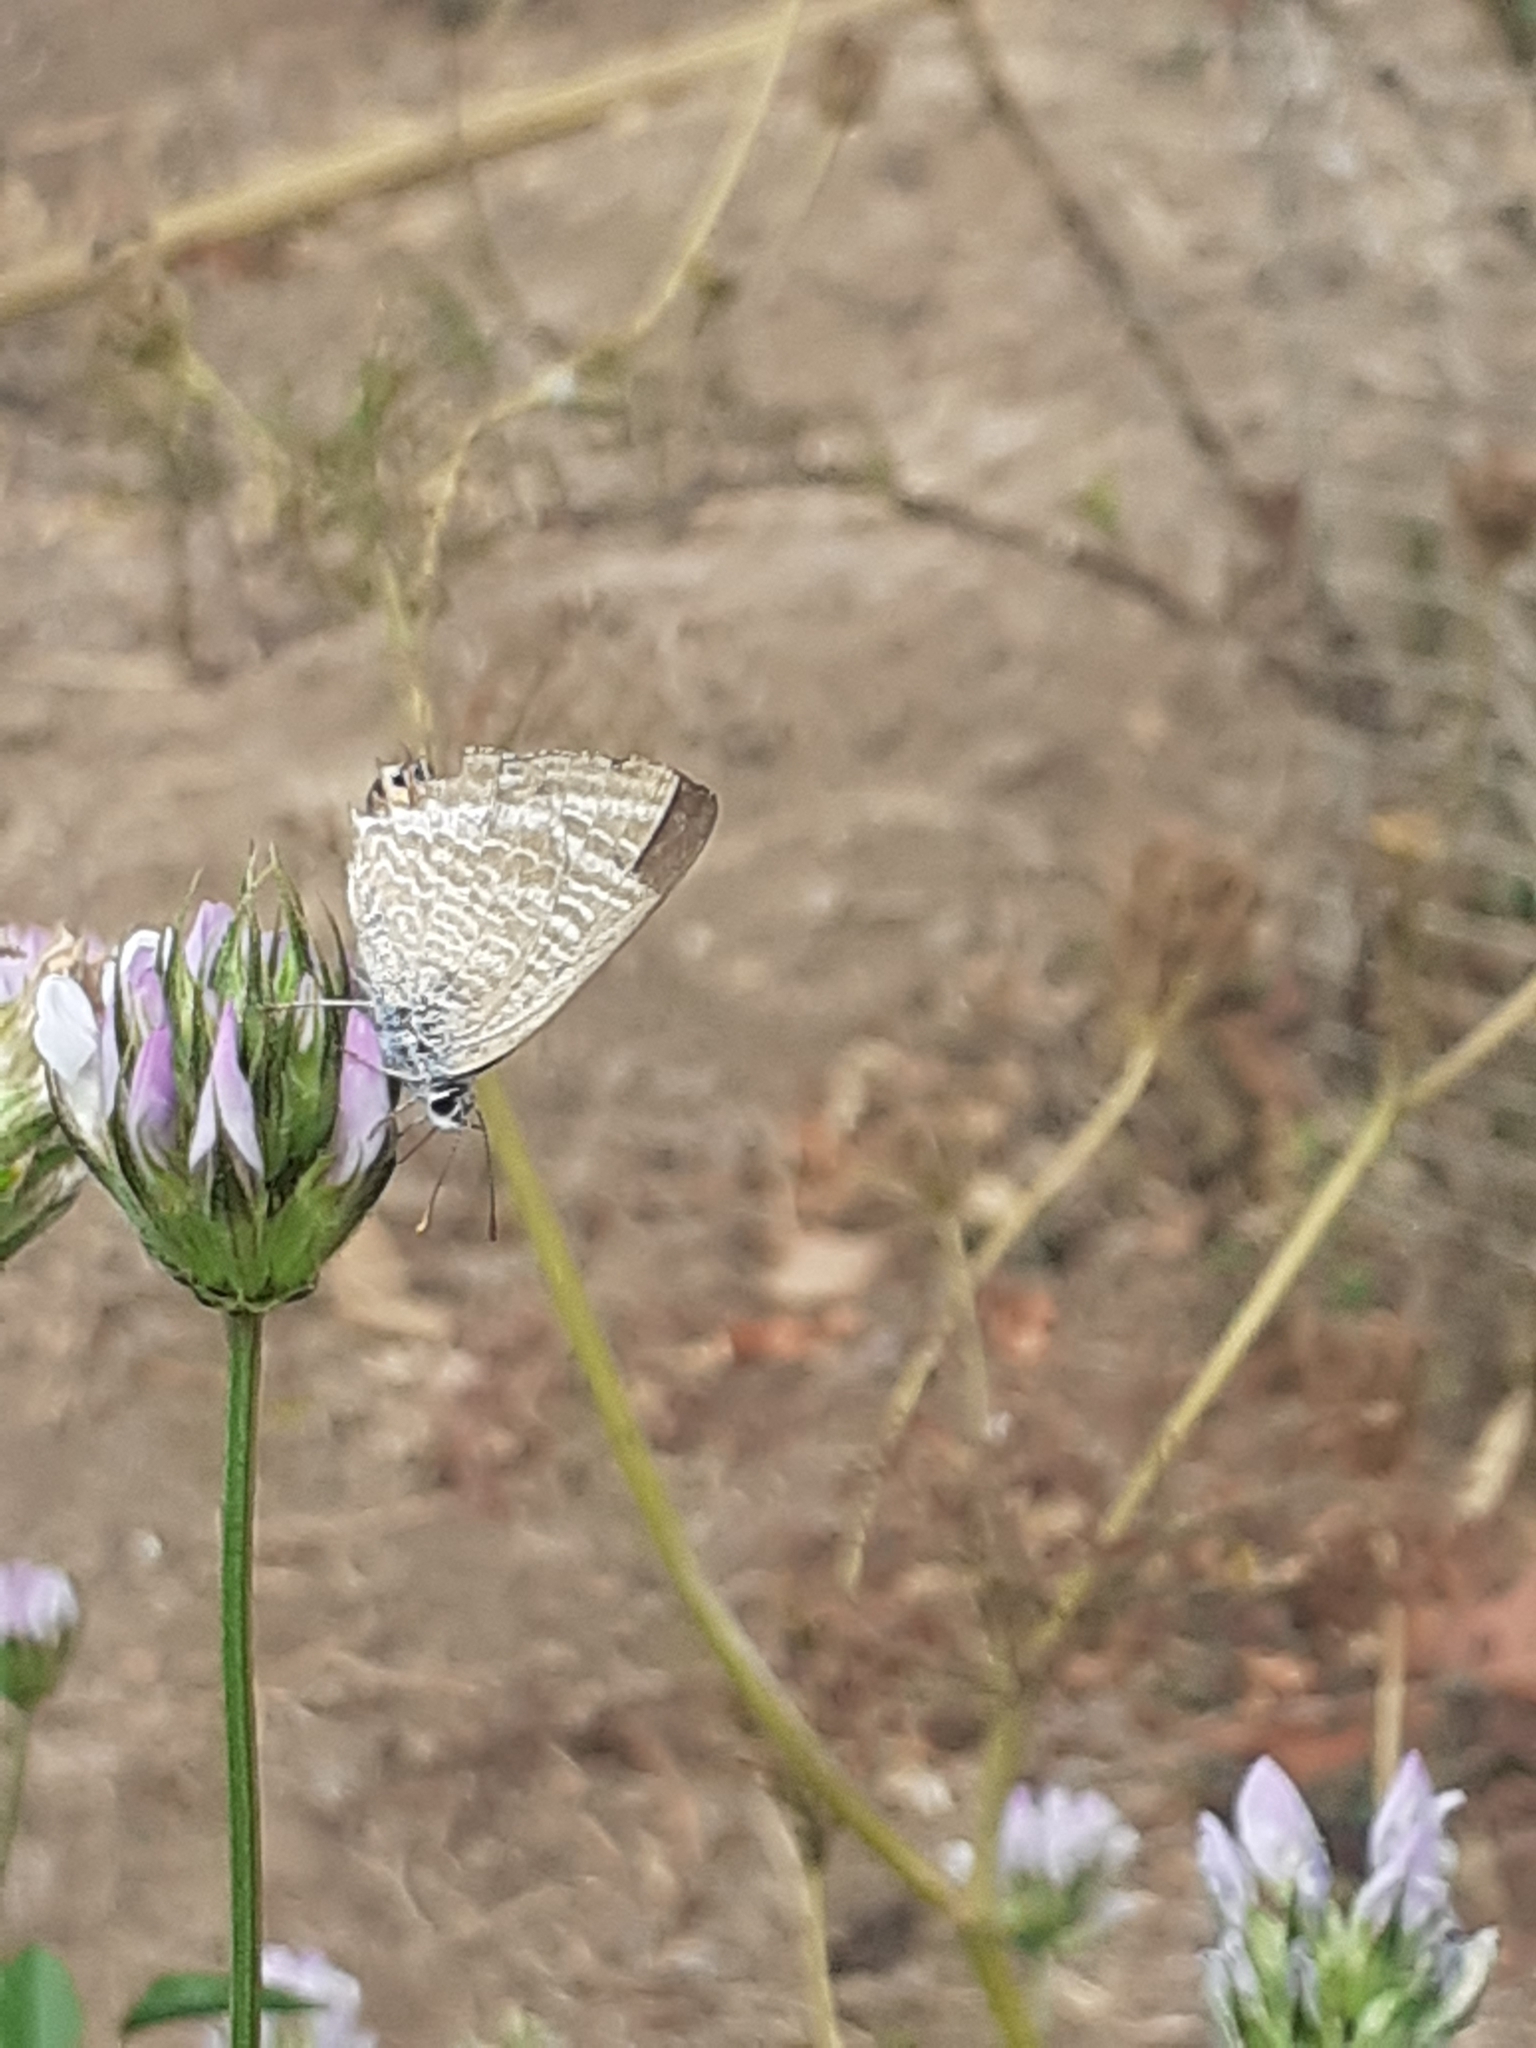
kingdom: Animalia
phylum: Arthropoda
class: Insecta
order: Lepidoptera
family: Lycaenidae
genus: Lampides
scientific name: Lampides boeticus
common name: Long-tailed blue
